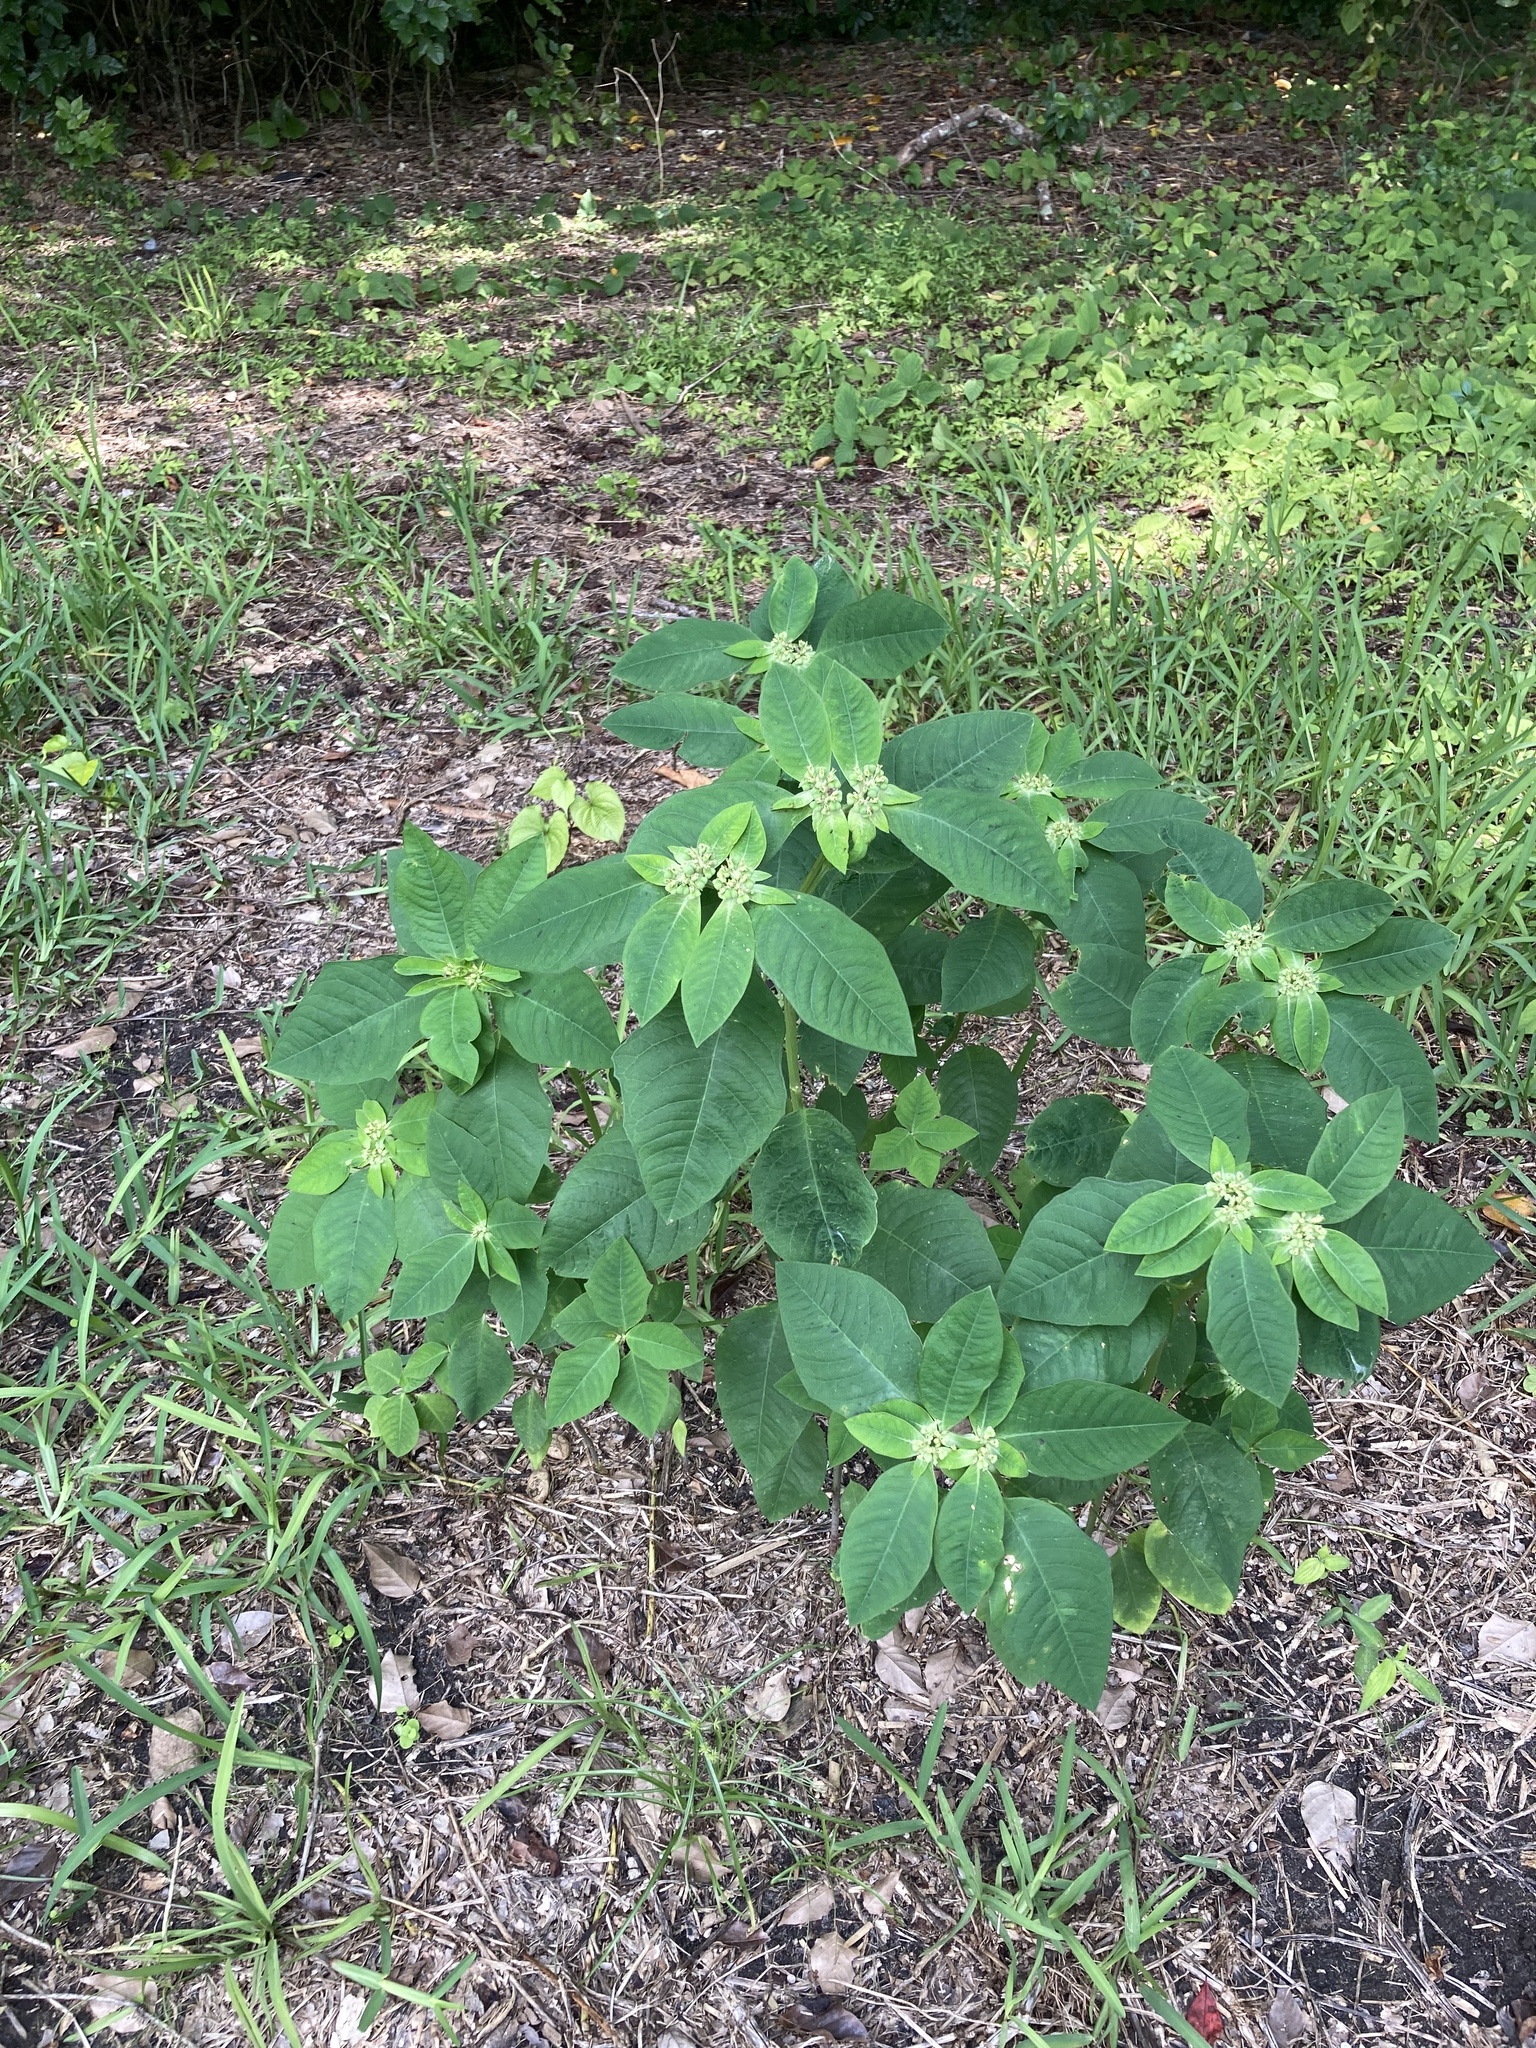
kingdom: Plantae
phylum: Tracheophyta
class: Magnoliopsida
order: Malpighiales
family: Euphorbiaceae
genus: Euphorbia
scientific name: Euphorbia heterophylla
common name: Mexican fireplant
